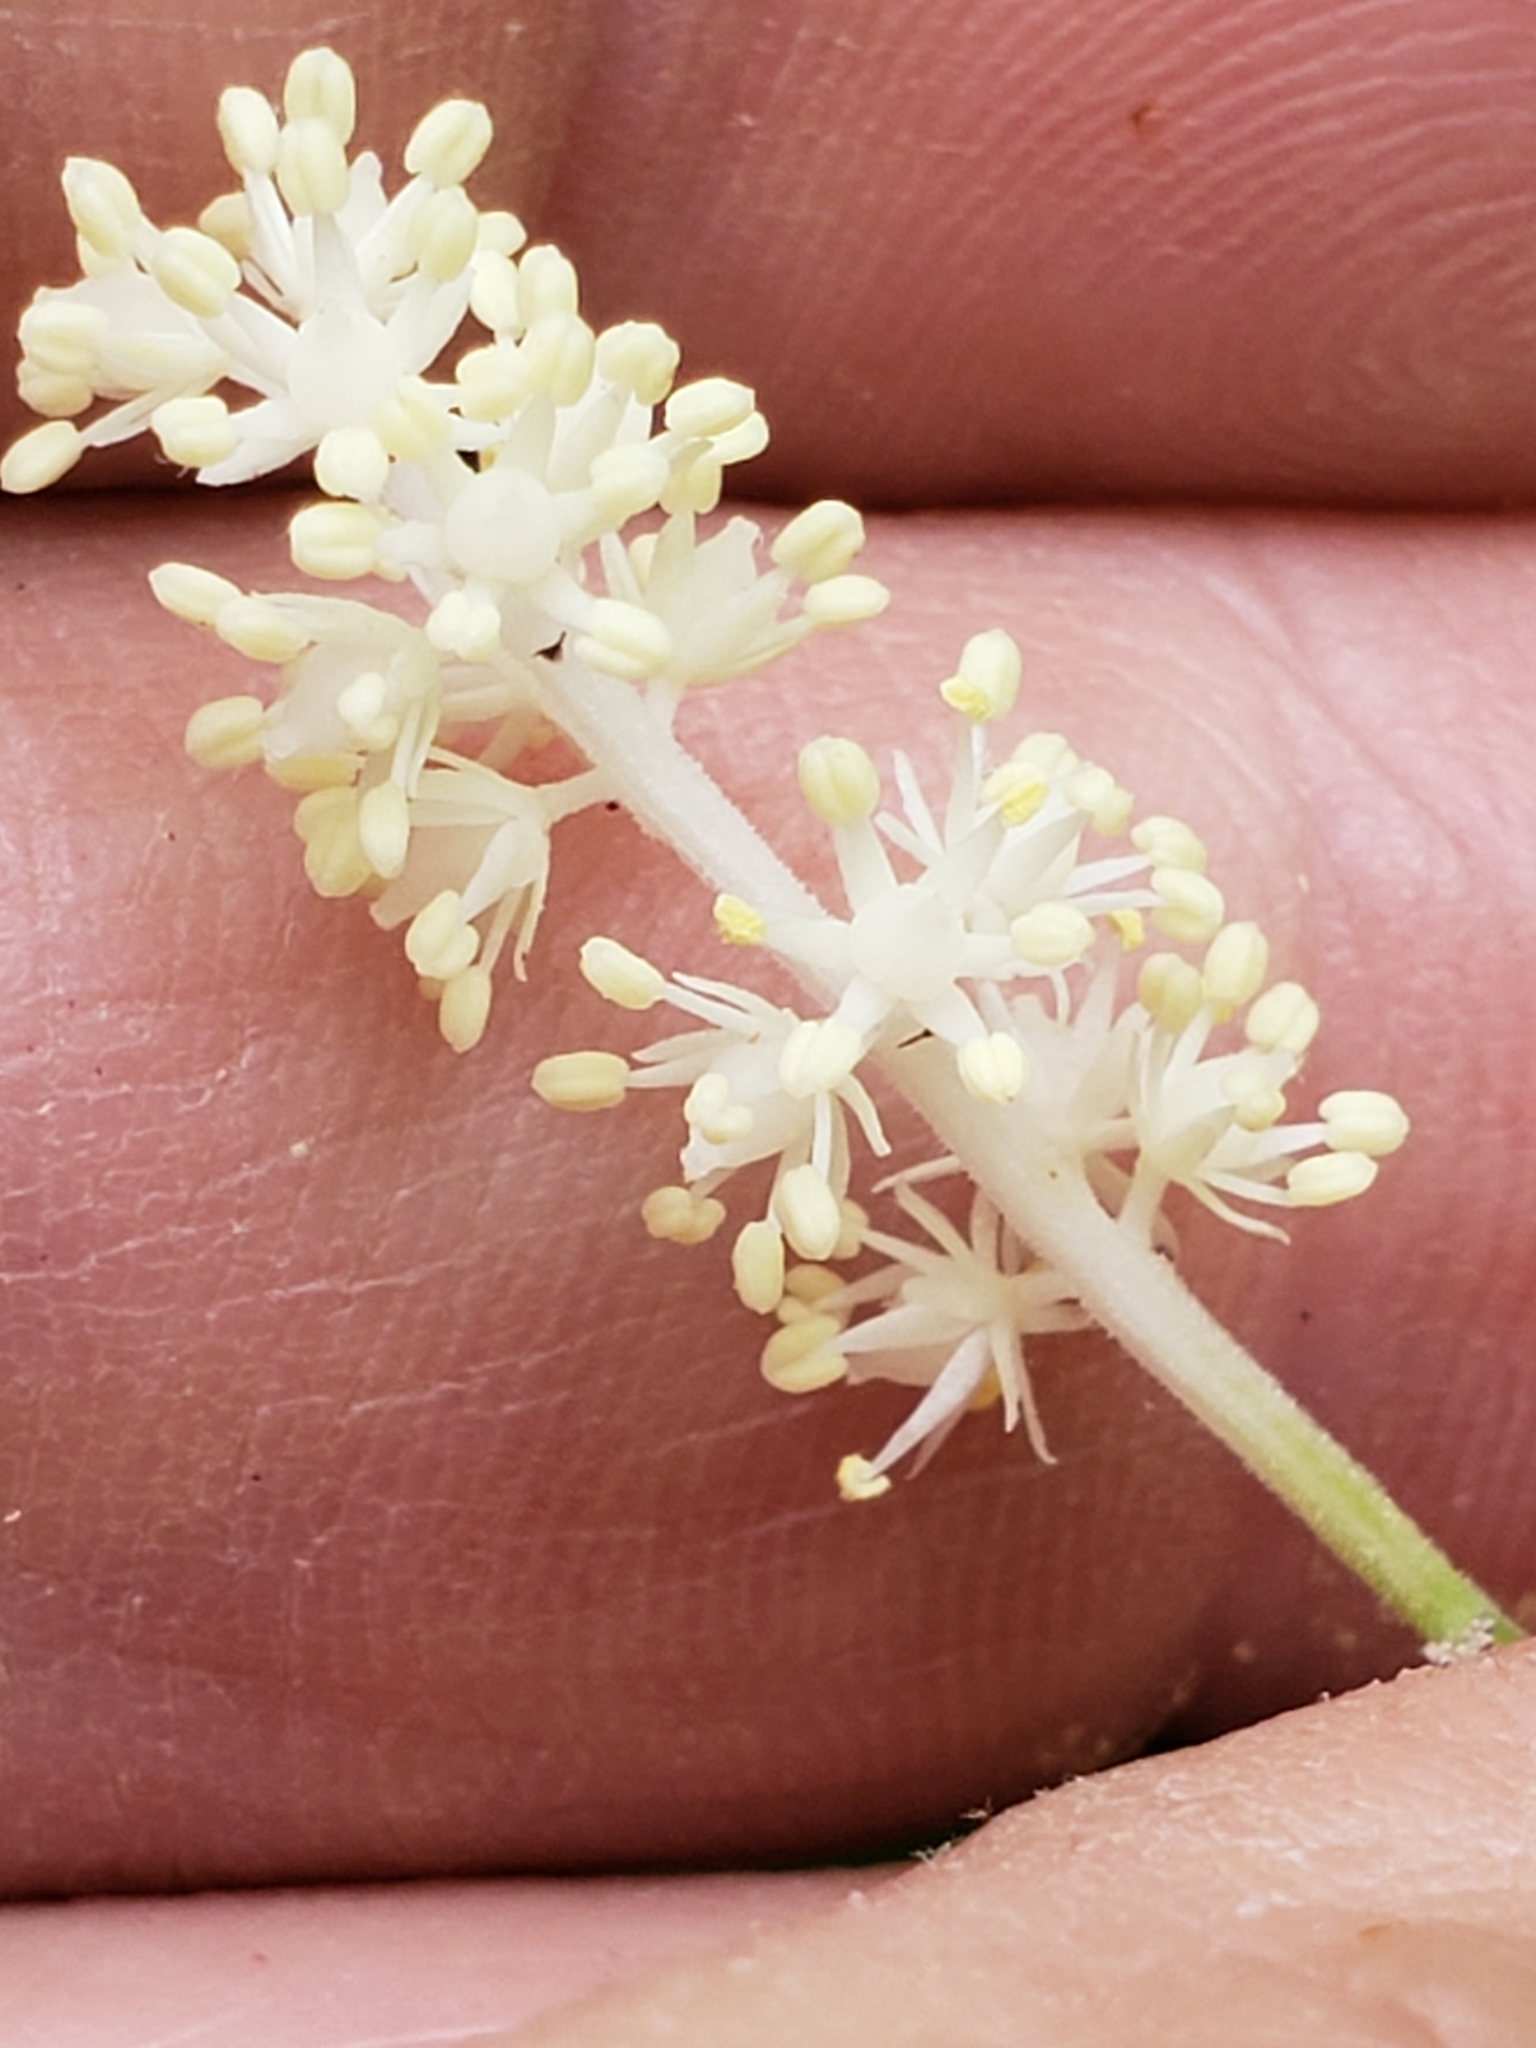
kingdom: Plantae
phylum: Tracheophyta
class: Liliopsida
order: Asparagales
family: Asparagaceae
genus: Maianthemum
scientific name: Maianthemum racemosum
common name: False spikenard
